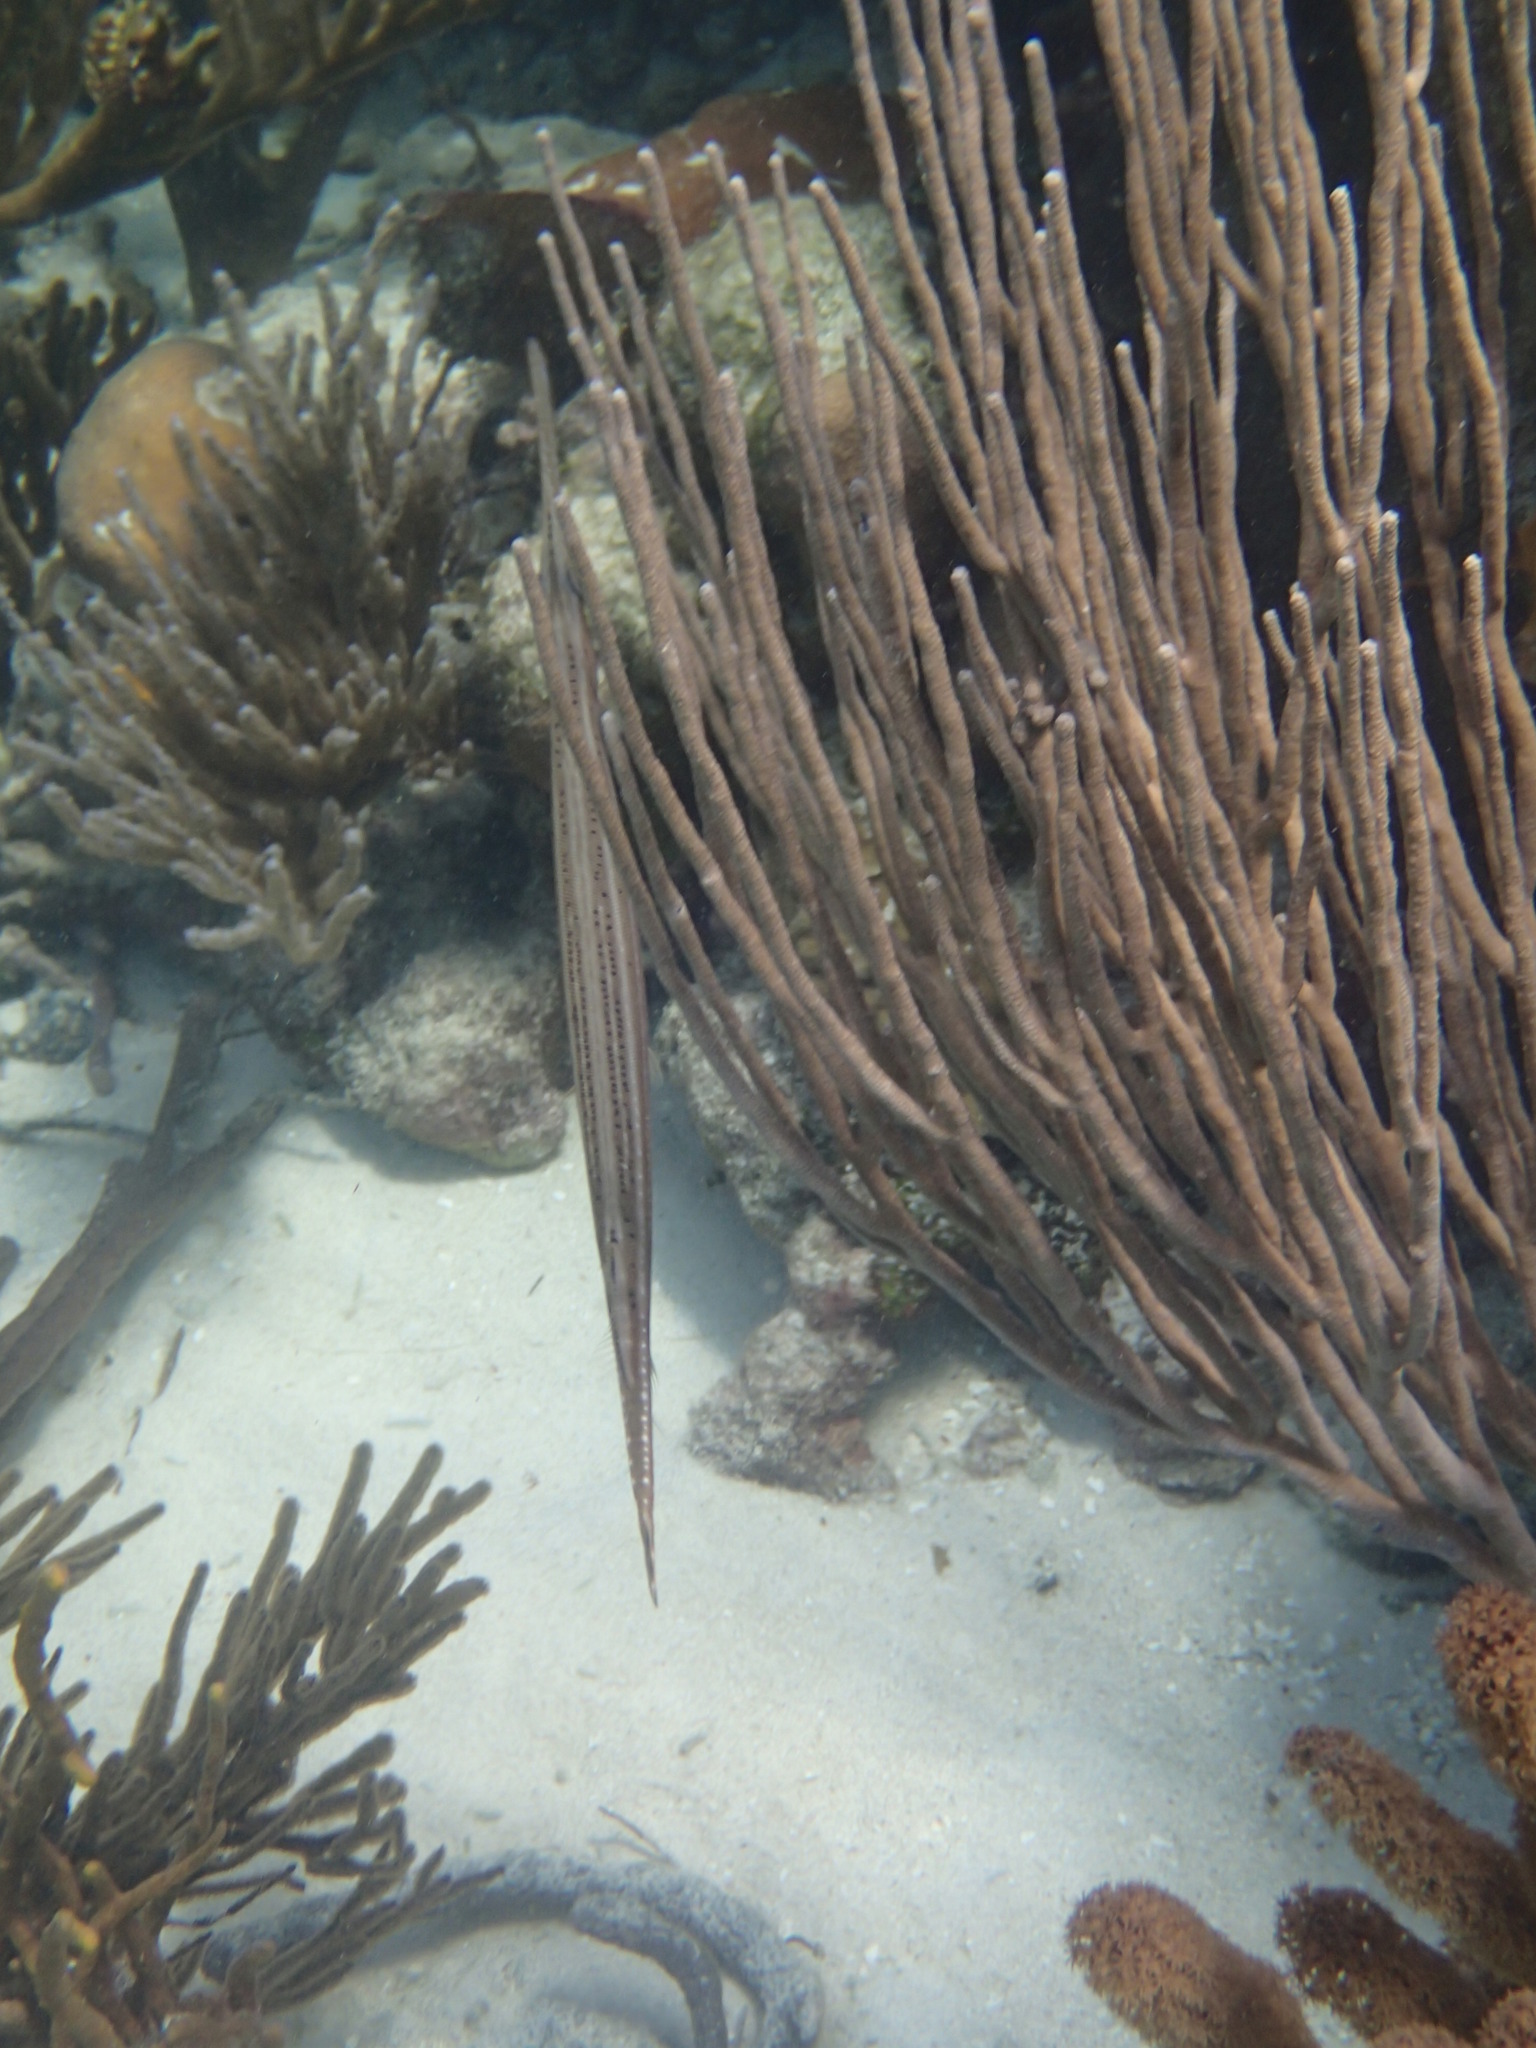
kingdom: Animalia
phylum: Chordata
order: Syngnathiformes
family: Aulostomidae
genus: Aulostomus
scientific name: Aulostomus maculatus
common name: West atlantic trumpetfish
